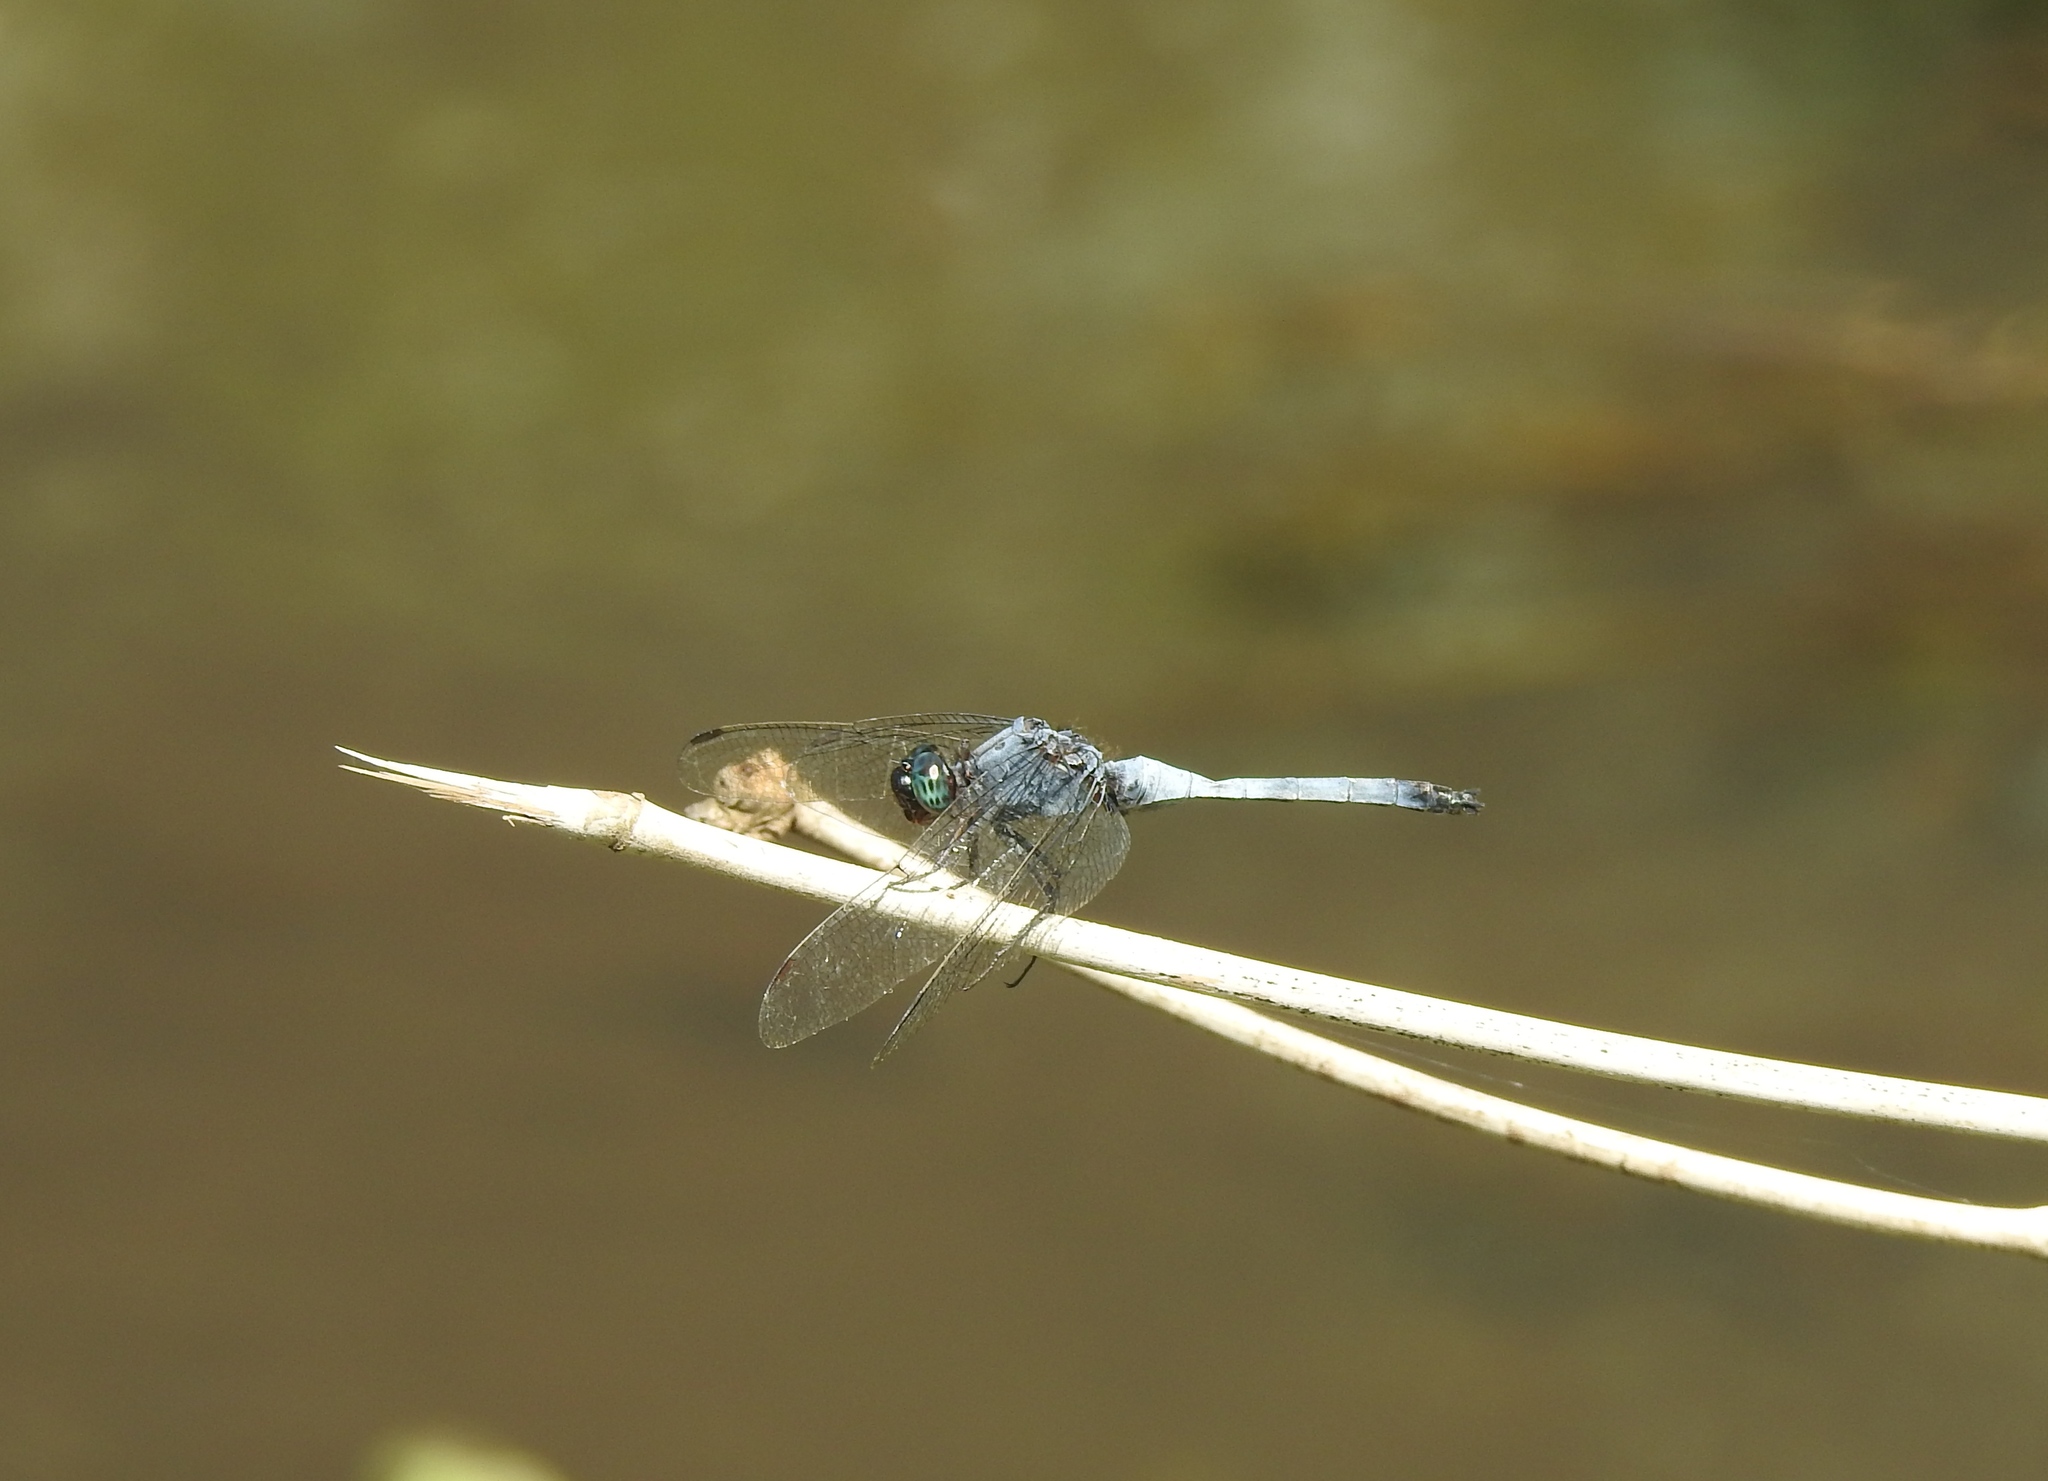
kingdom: Animalia
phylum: Arthropoda
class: Insecta
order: Odonata
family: Libellulidae
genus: Orthetrum
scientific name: Orthetrum glaucum
